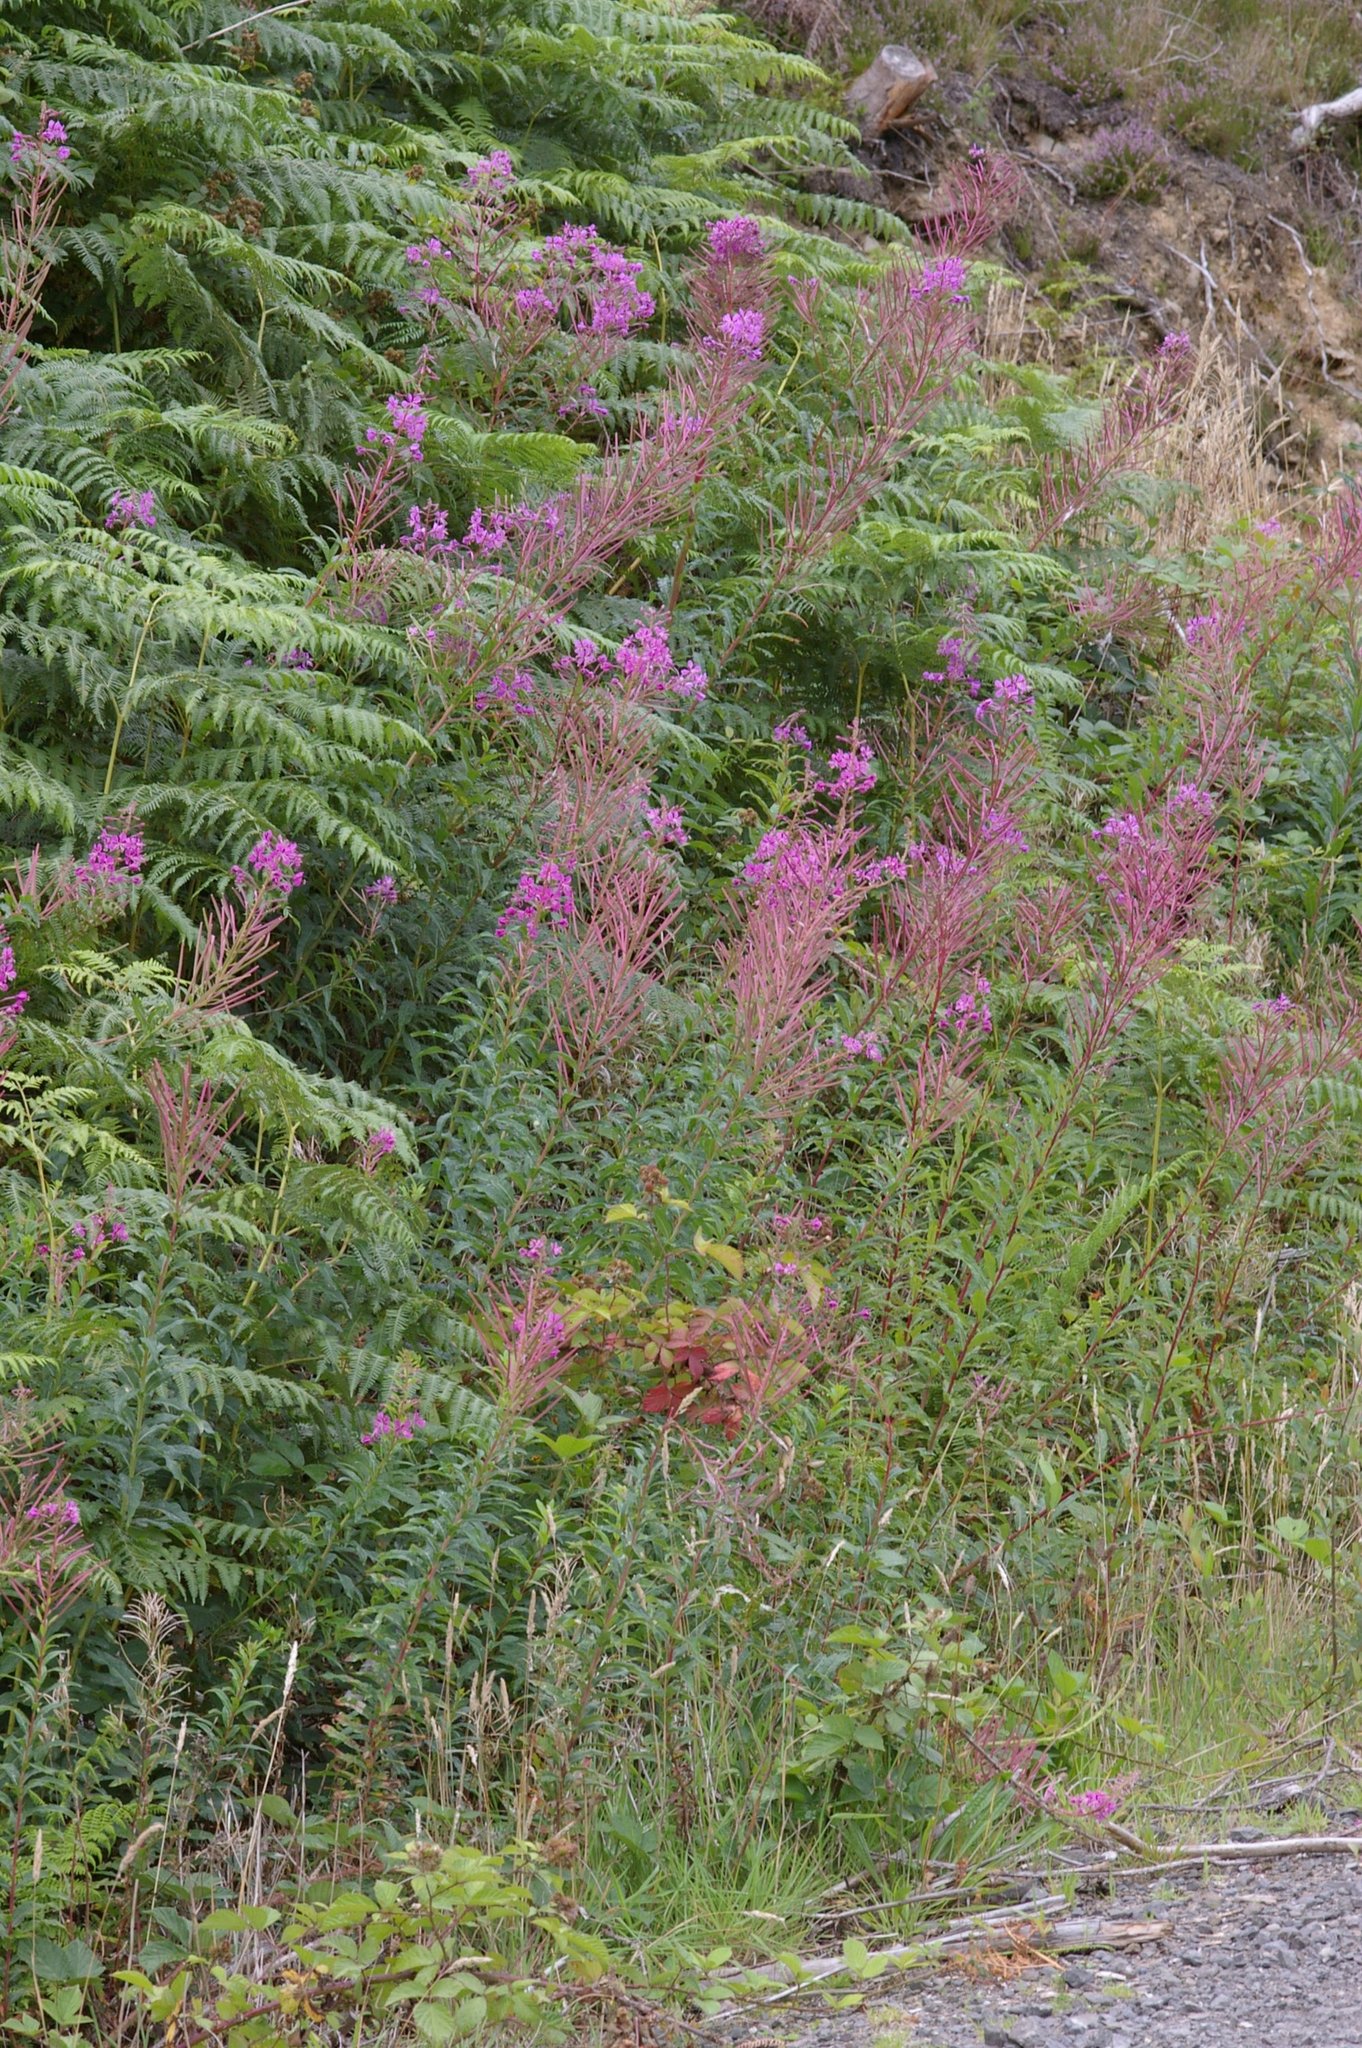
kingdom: Plantae
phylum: Tracheophyta
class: Magnoliopsida
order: Myrtales
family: Onagraceae
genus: Chamaenerion
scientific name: Chamaenerion angustifolium
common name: Fireweed
